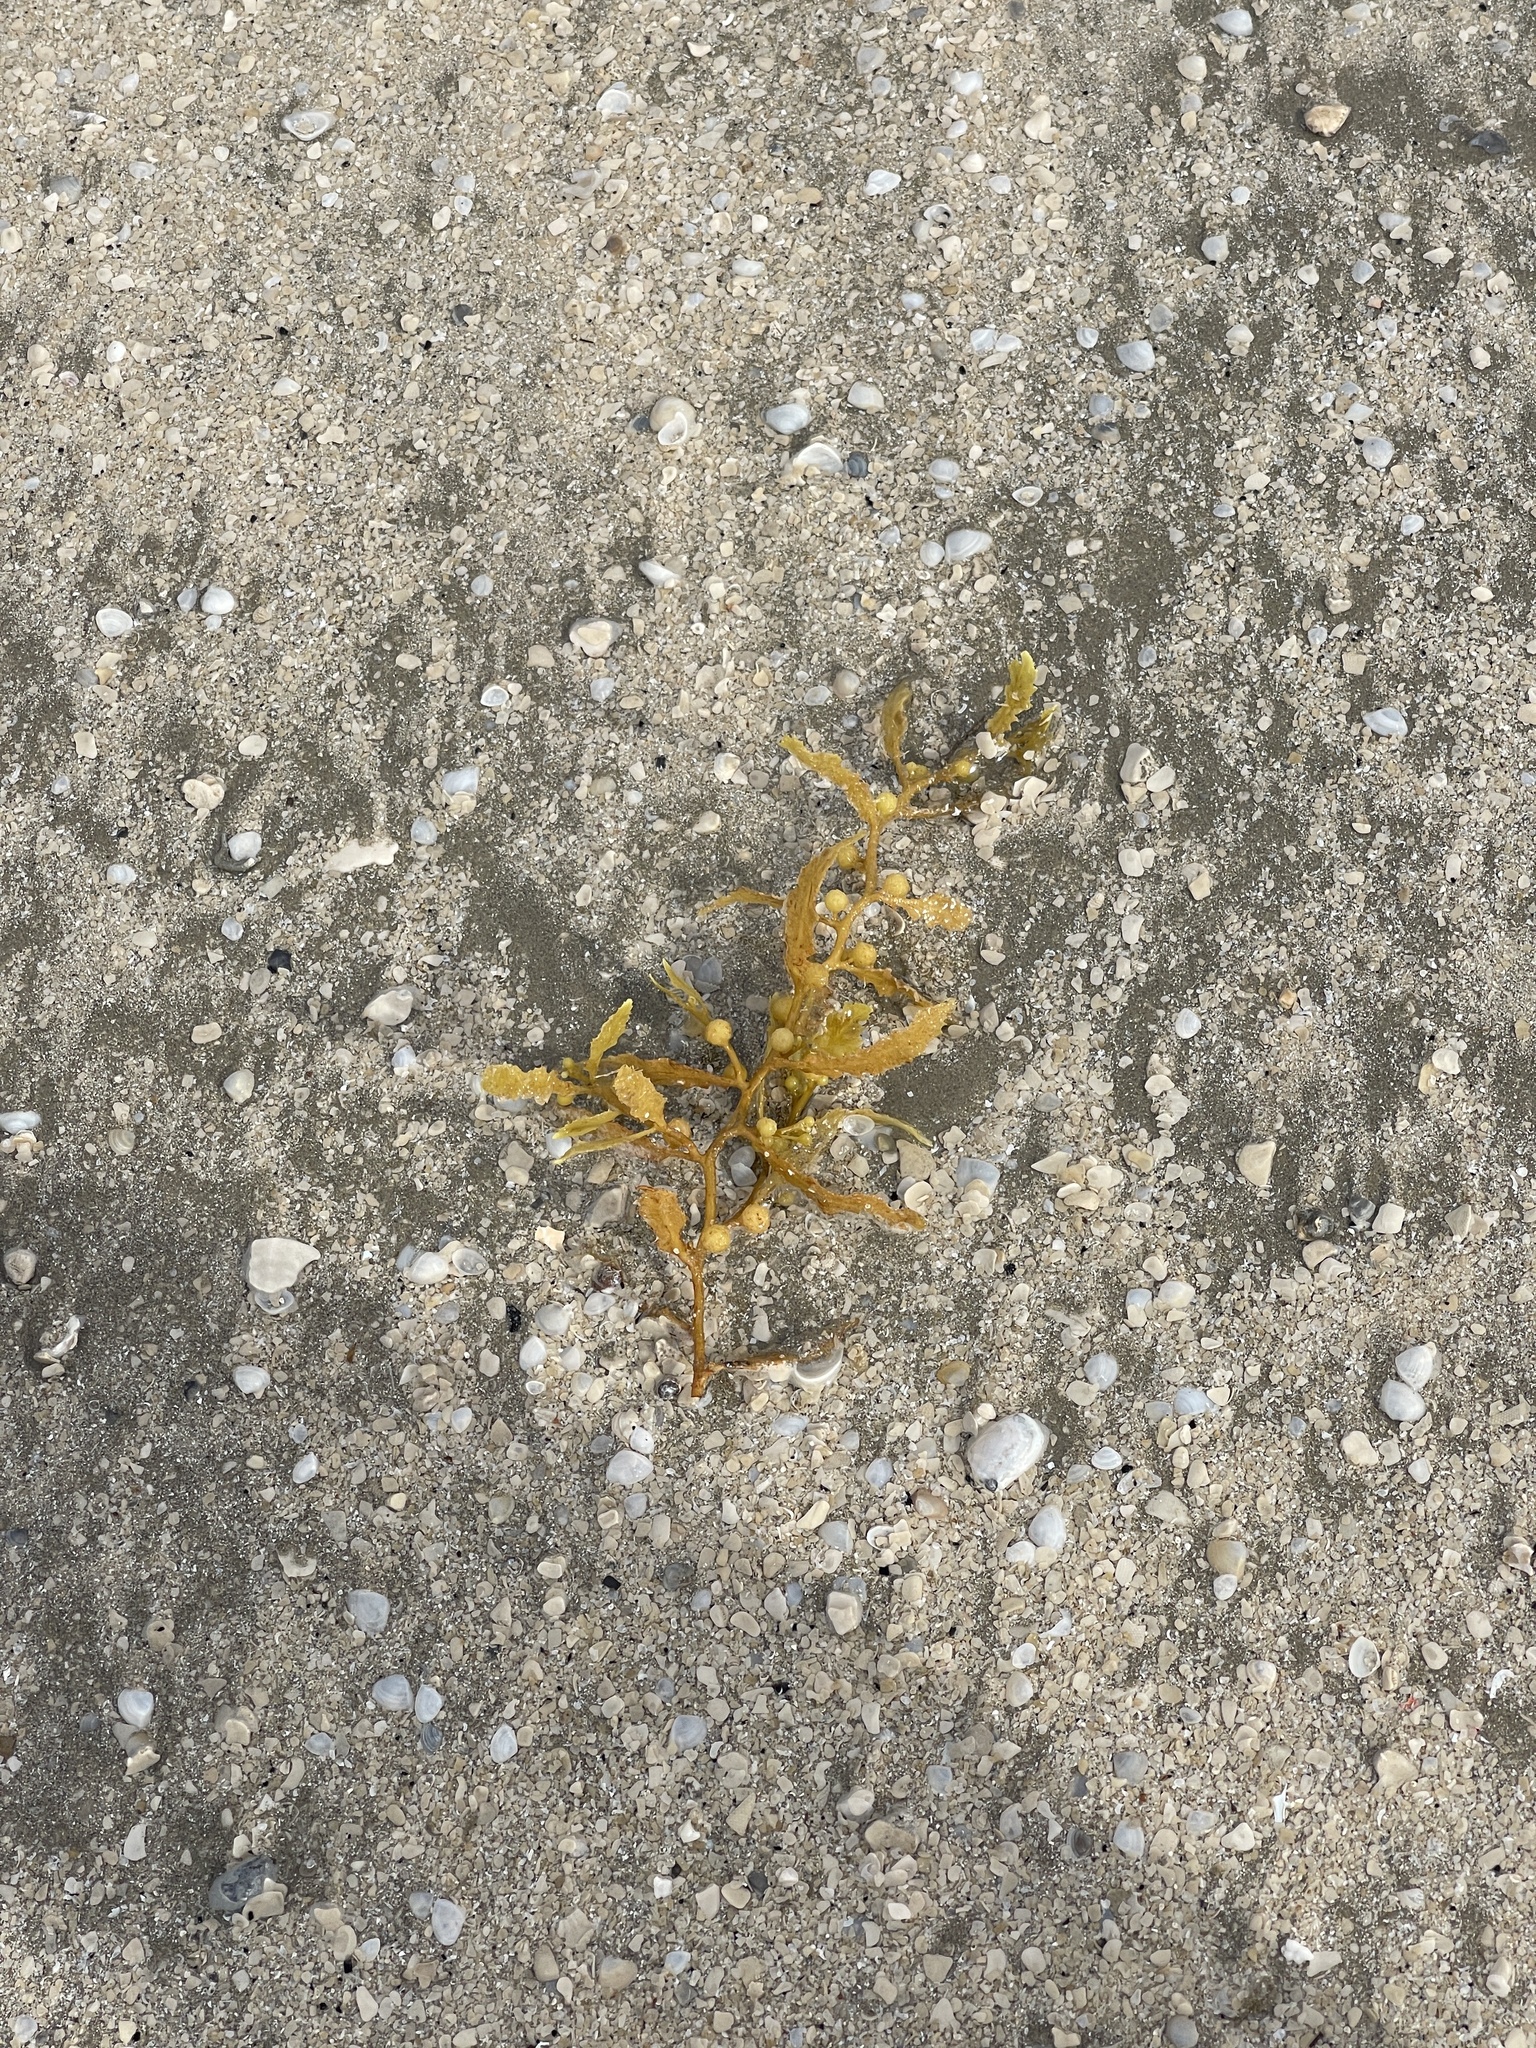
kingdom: Chromista
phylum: Ochrophyta
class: Phaeophyceae
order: Fucales
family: Sargassaceae
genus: Sargassum
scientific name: Sargassum fluitans
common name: Sargassum seaweed
